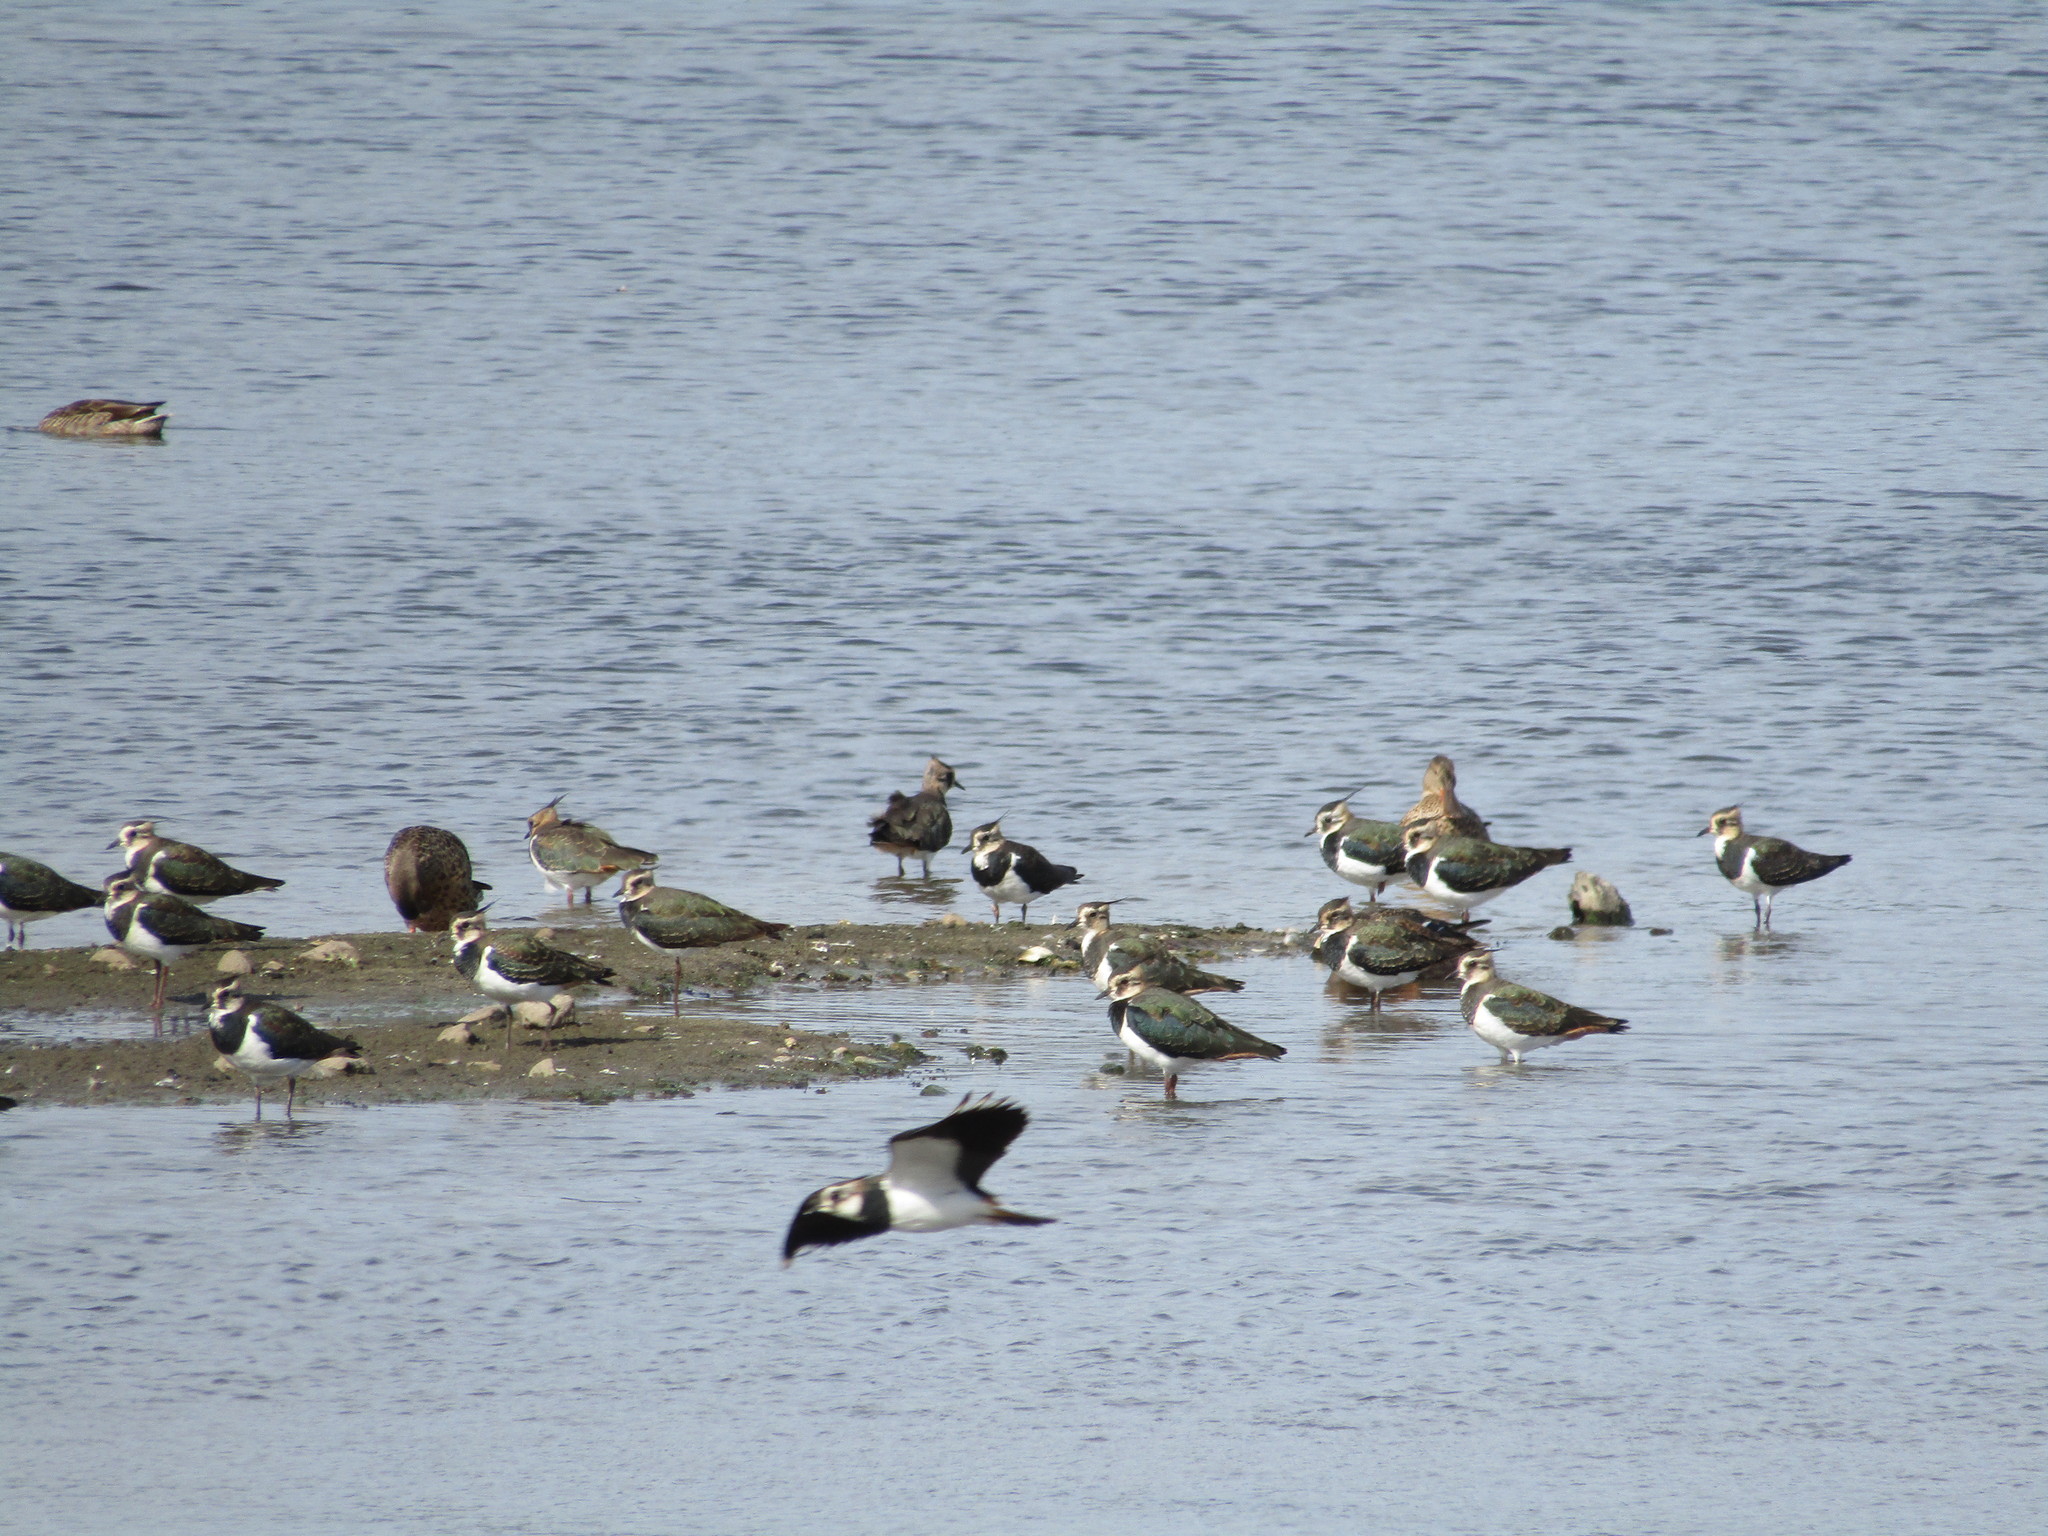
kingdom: Animalia
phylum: Chordata
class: Aves
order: Charadriiformes
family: Charadriidae
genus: Vanellus
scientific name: Vanellus vanellus
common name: Northern lapwing
